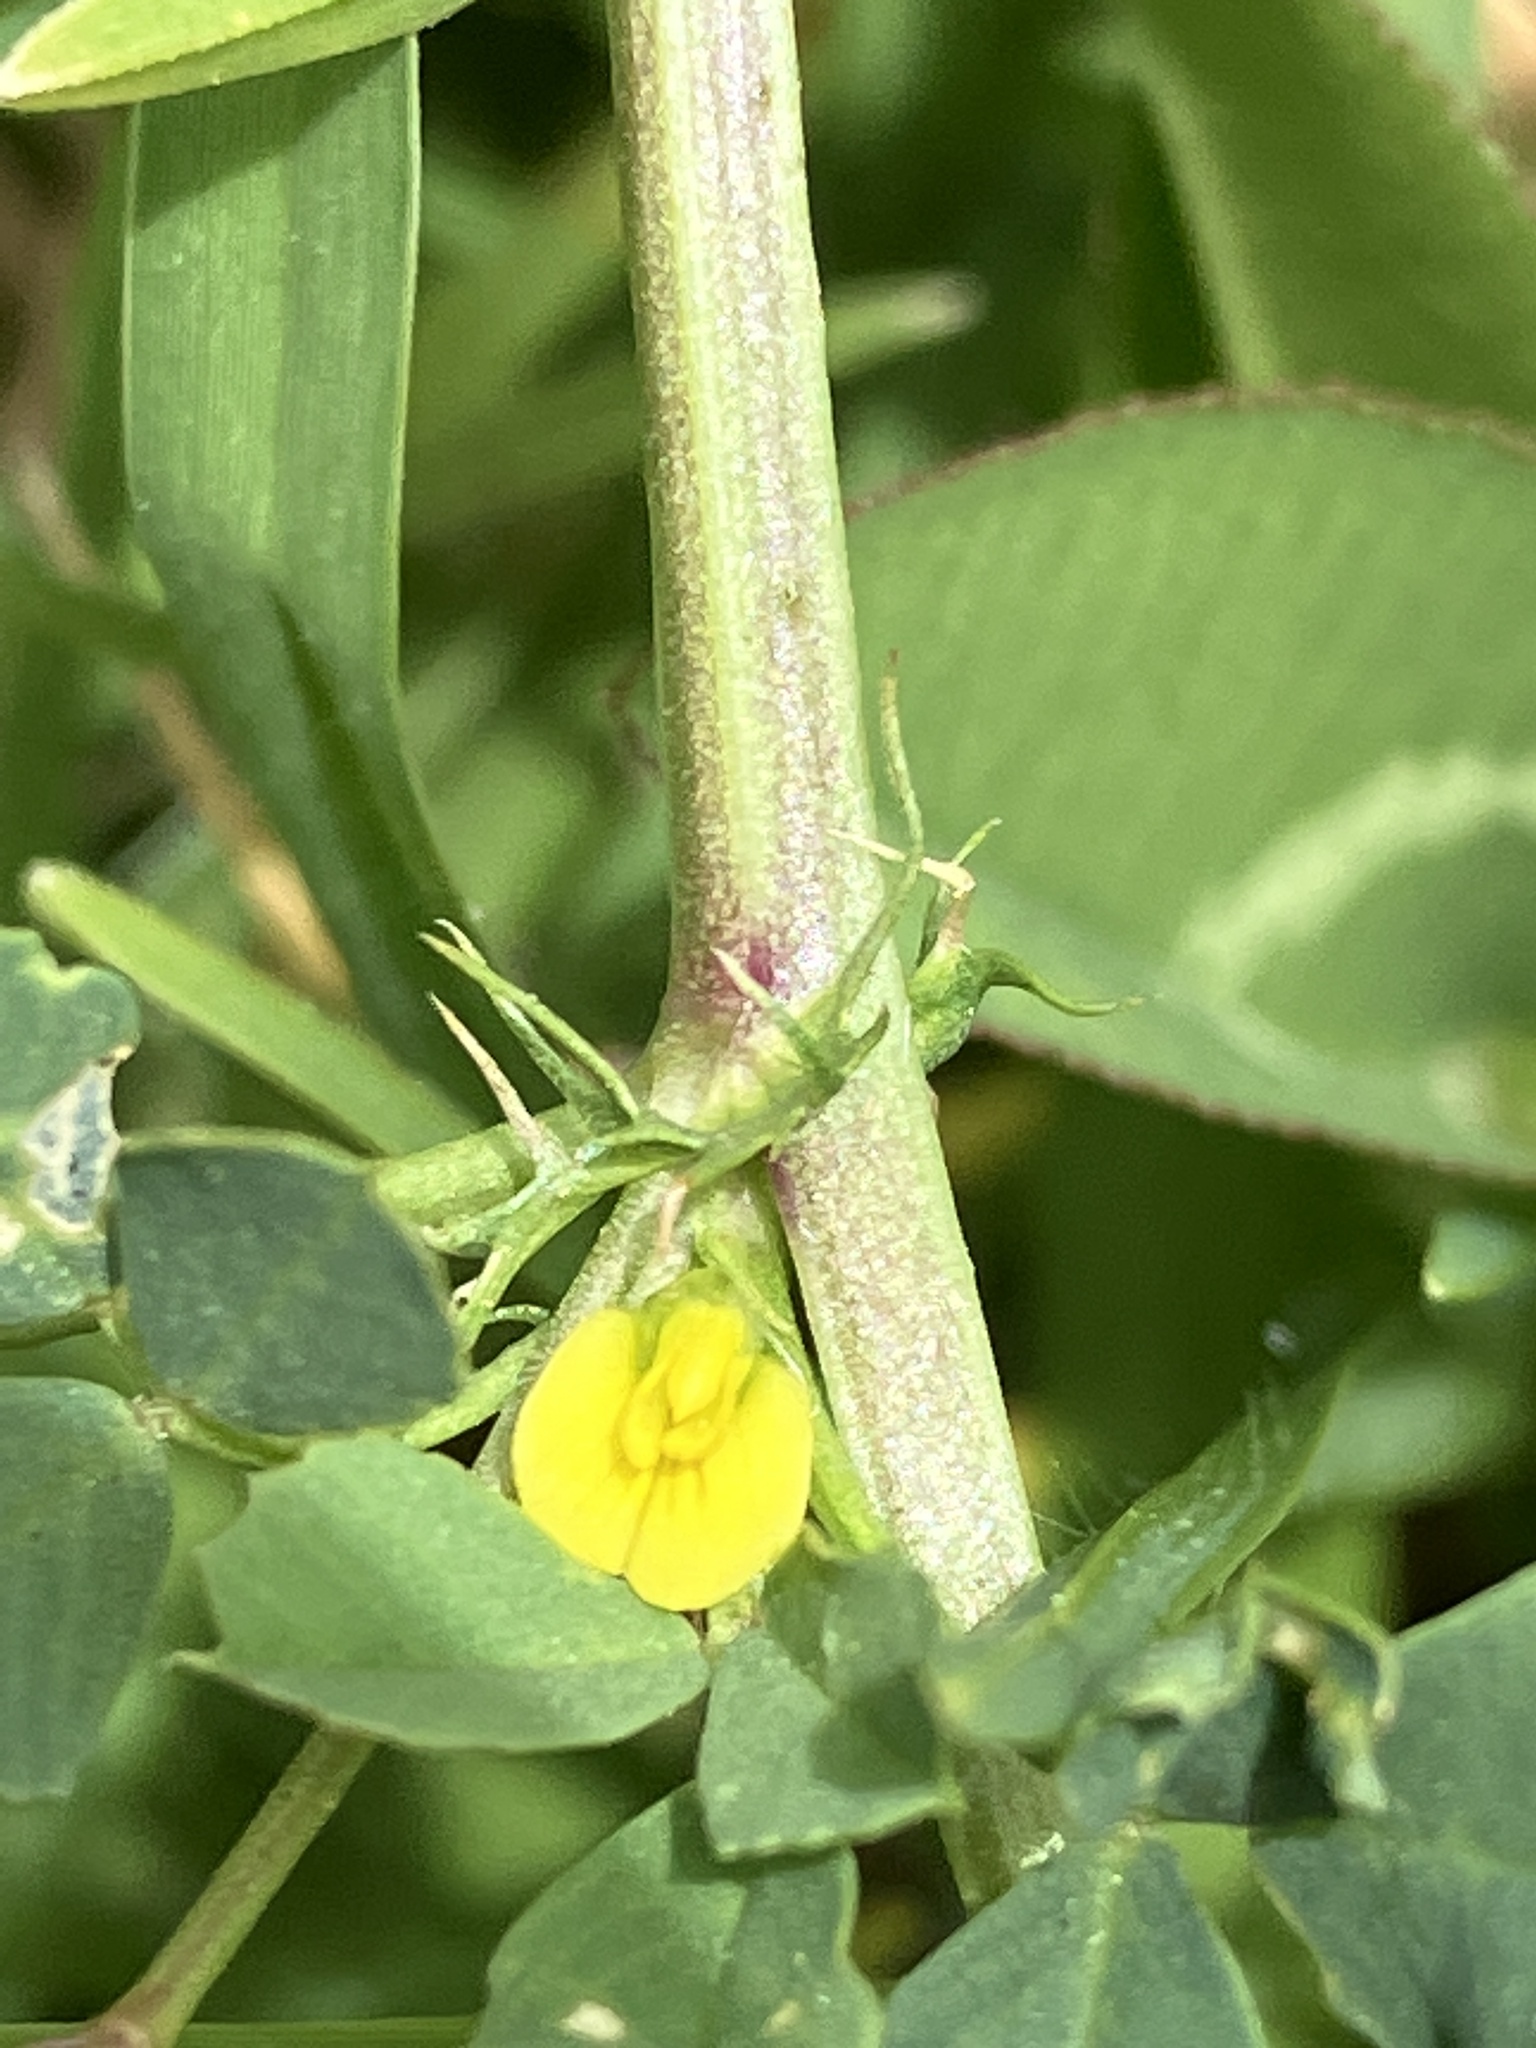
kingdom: Plantae
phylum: Tracheophyta
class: Magnoliopsida
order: Fabales
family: Fabaceae
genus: Medicago
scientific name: Medicago polymorpha
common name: Burclover
